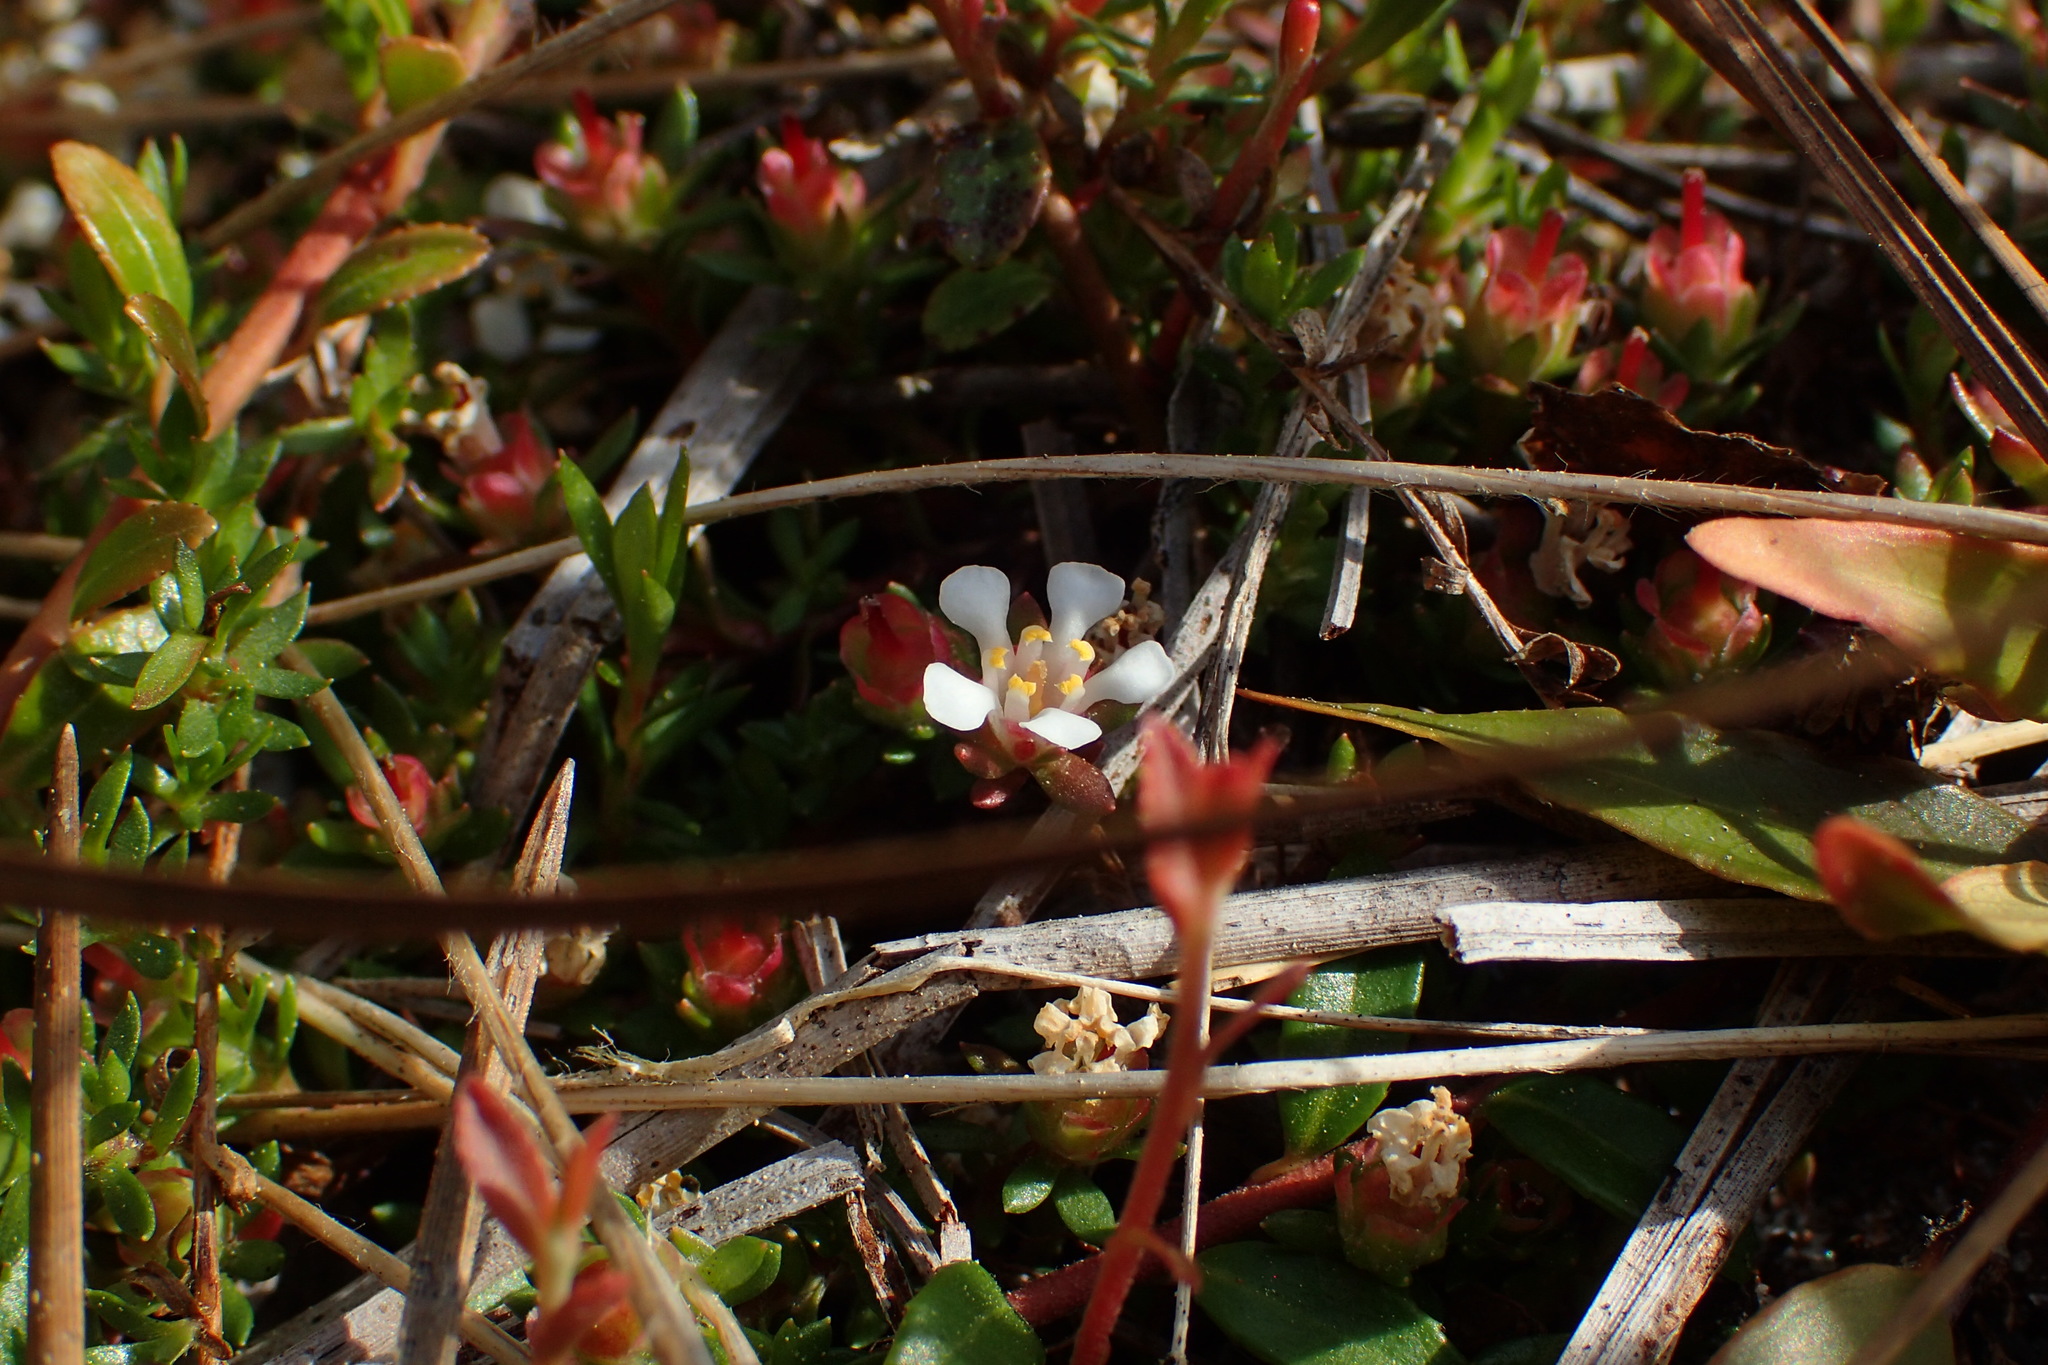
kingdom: Plantae
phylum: Tracheophyta
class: Magnoliopsida
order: Ericales
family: Diapensiaceae
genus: Pyxidanthera
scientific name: Pyxidanthera barbulata
